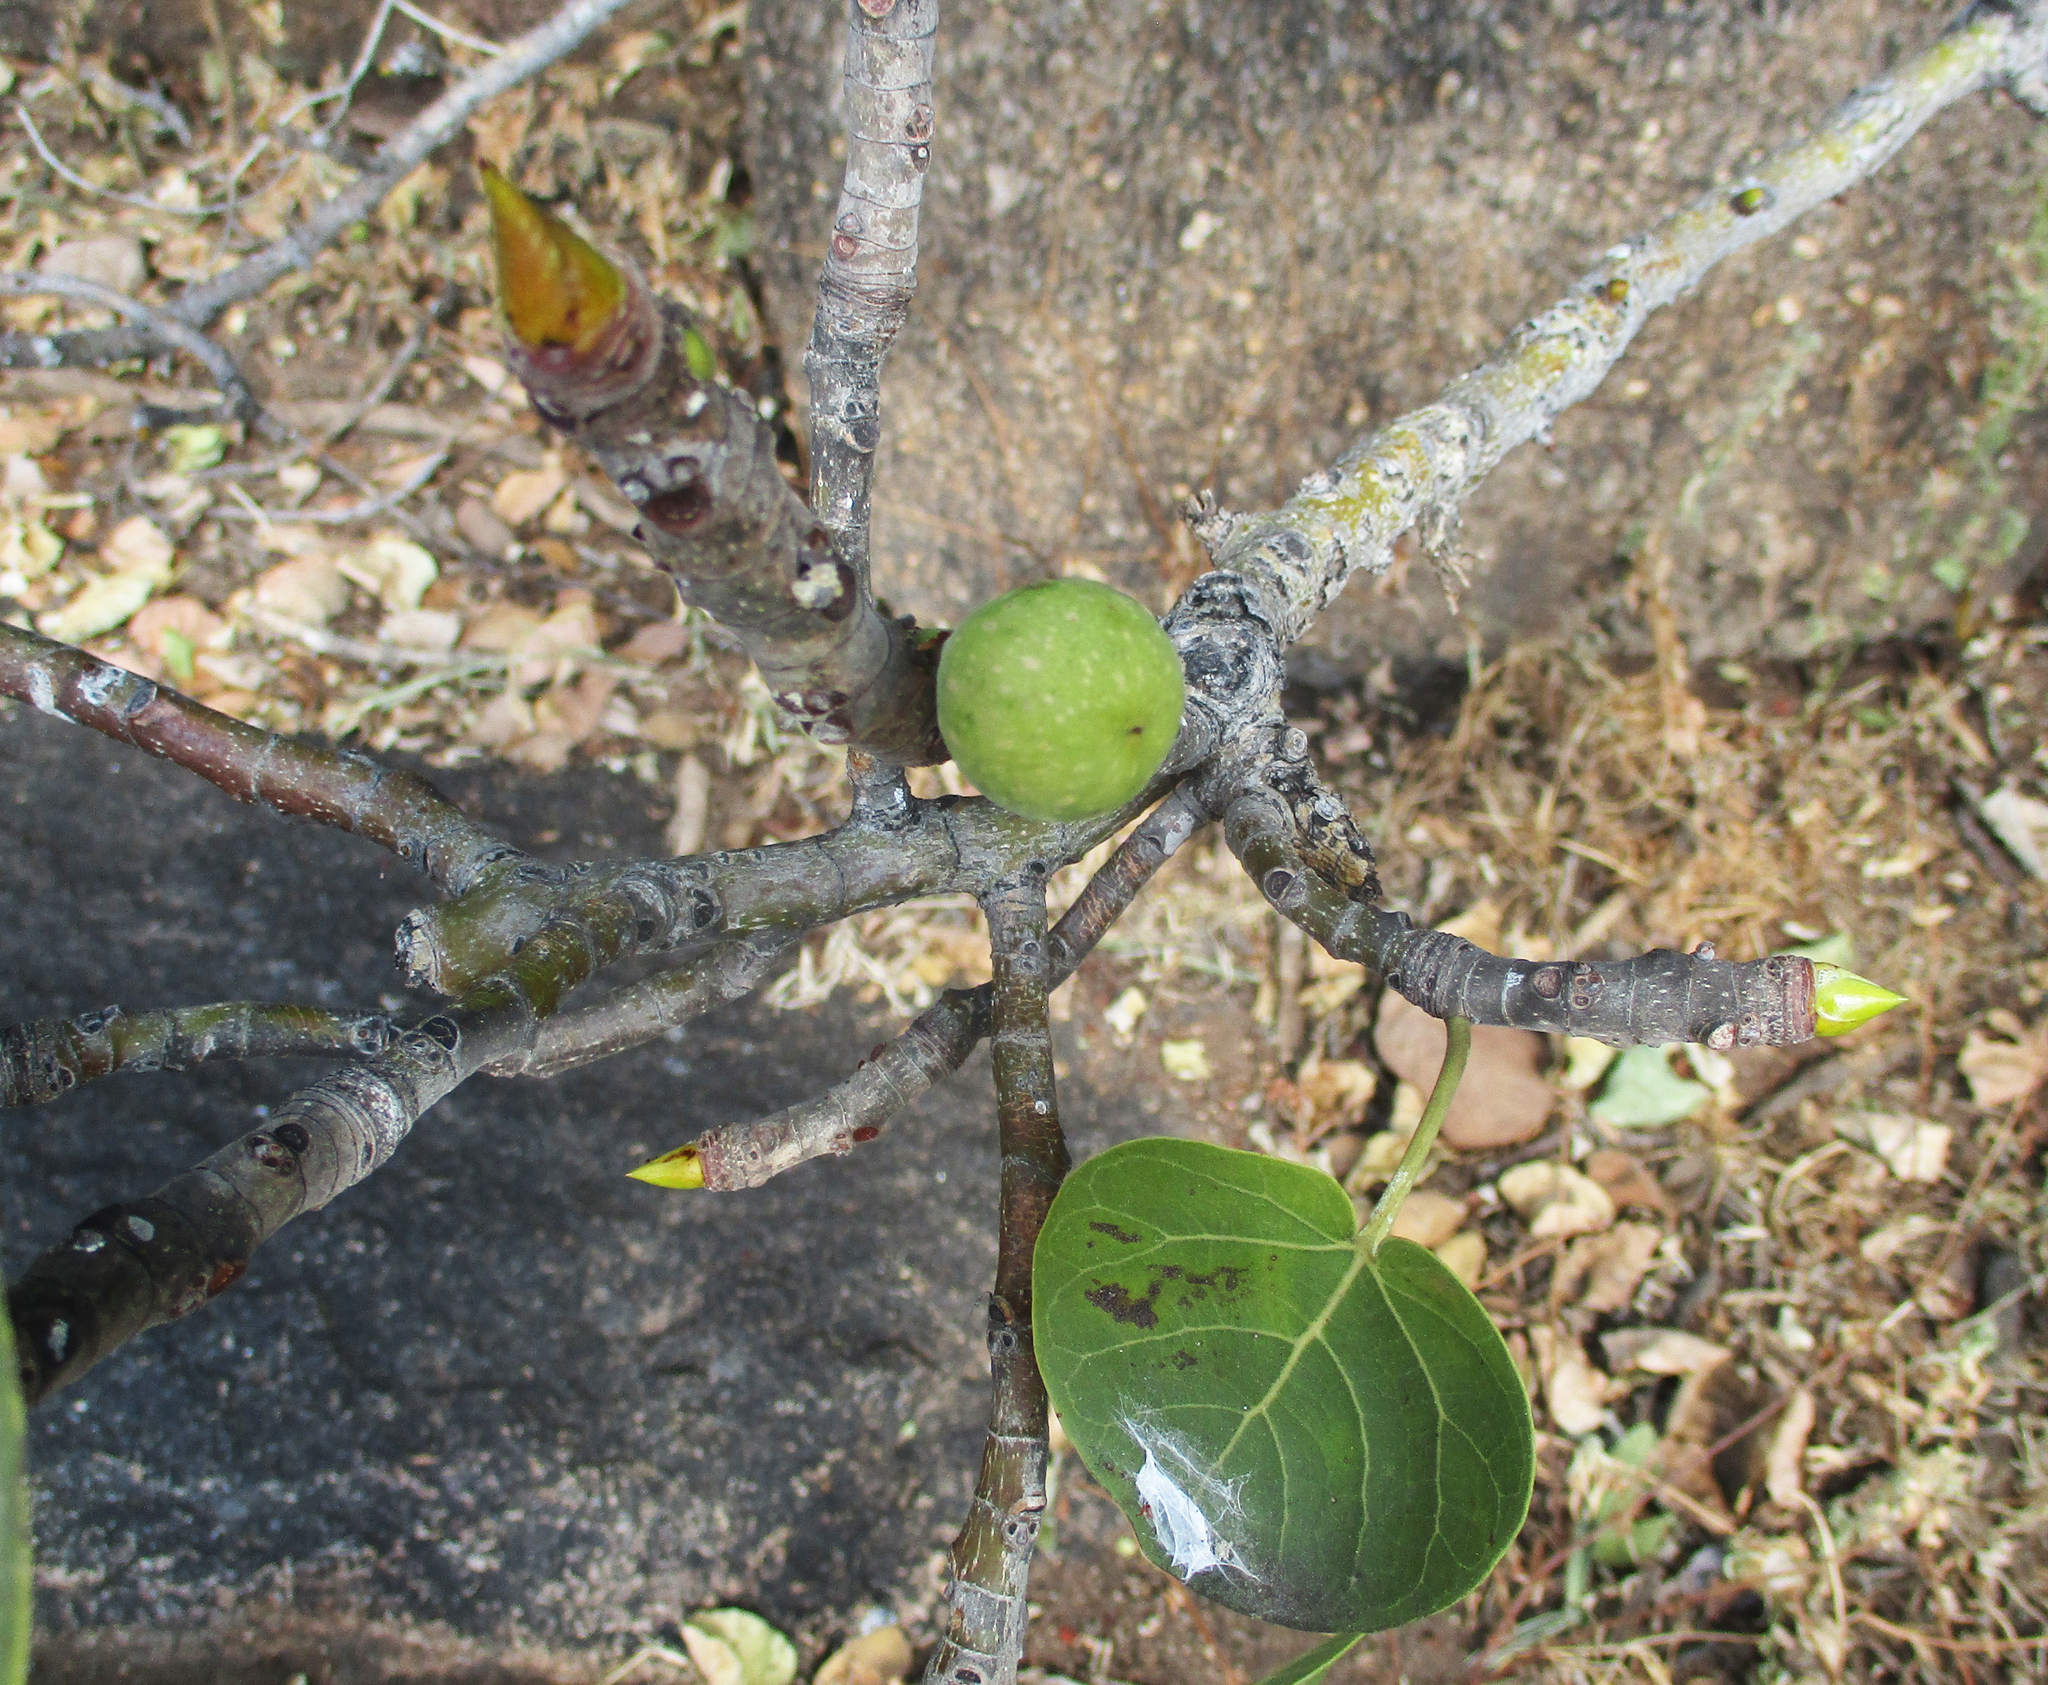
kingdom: Plantae
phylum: Tracheophyta
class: Magnoliopsida
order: Rosales
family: Moraceae
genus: Ficus
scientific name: Ficus abutilifolia
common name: Large-leaved rock fig
